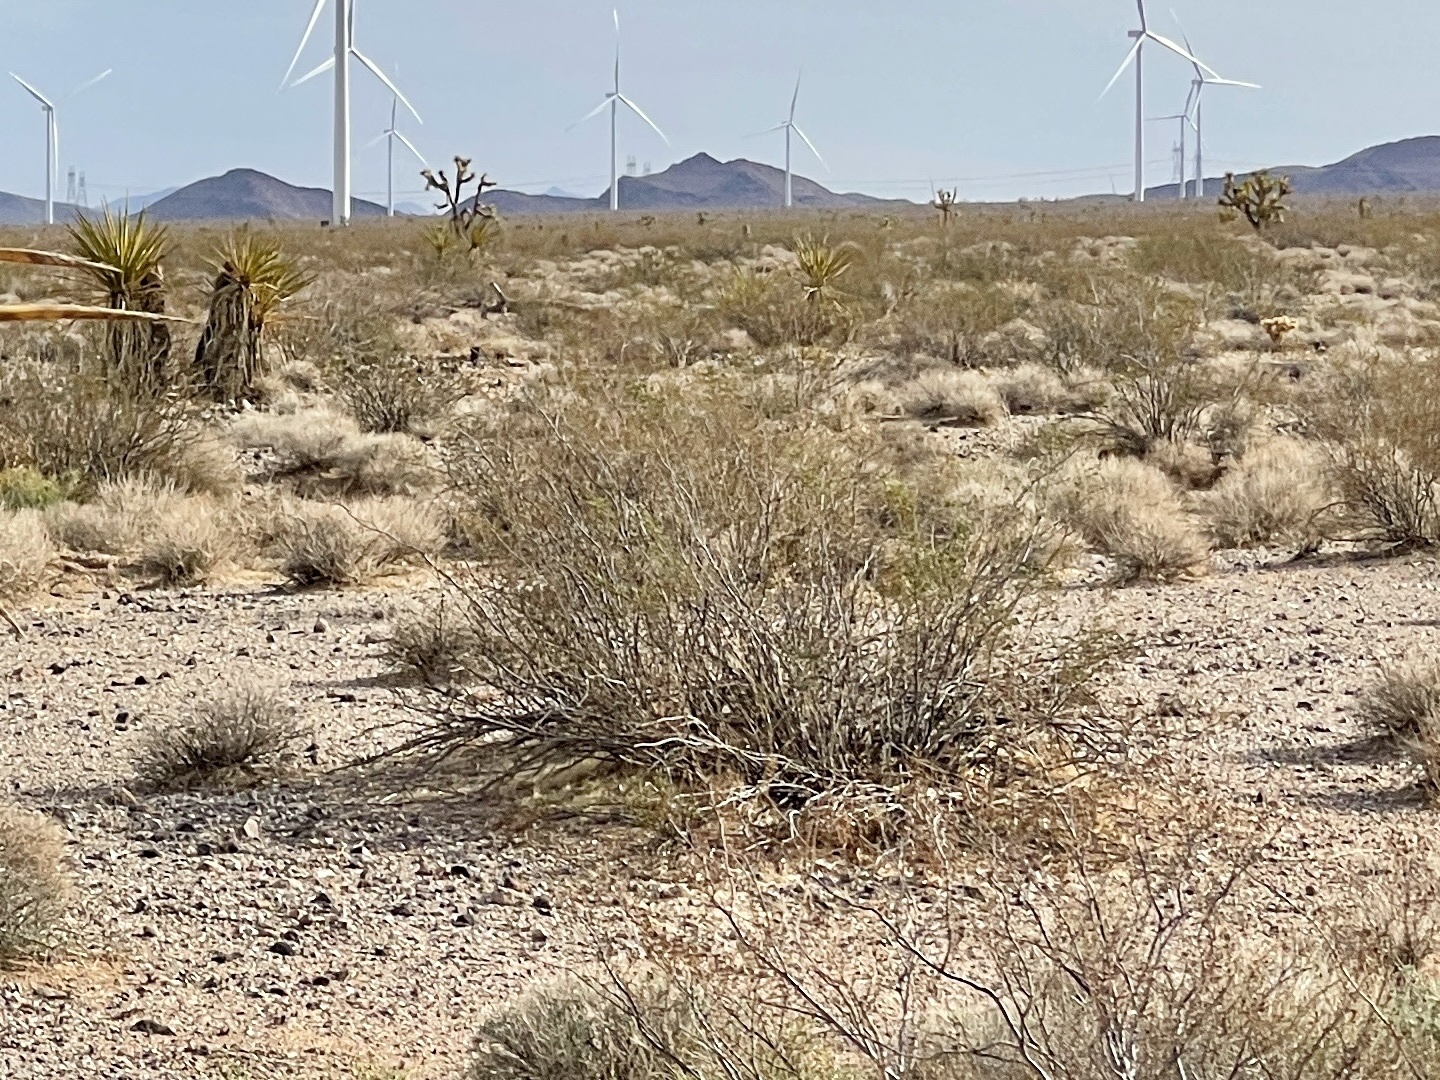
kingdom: Plantae
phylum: Tracheophyta
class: Magnoliopsida
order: Zygophyllales
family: Zygophyllaceae
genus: Larrea
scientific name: Larrea tridentata
